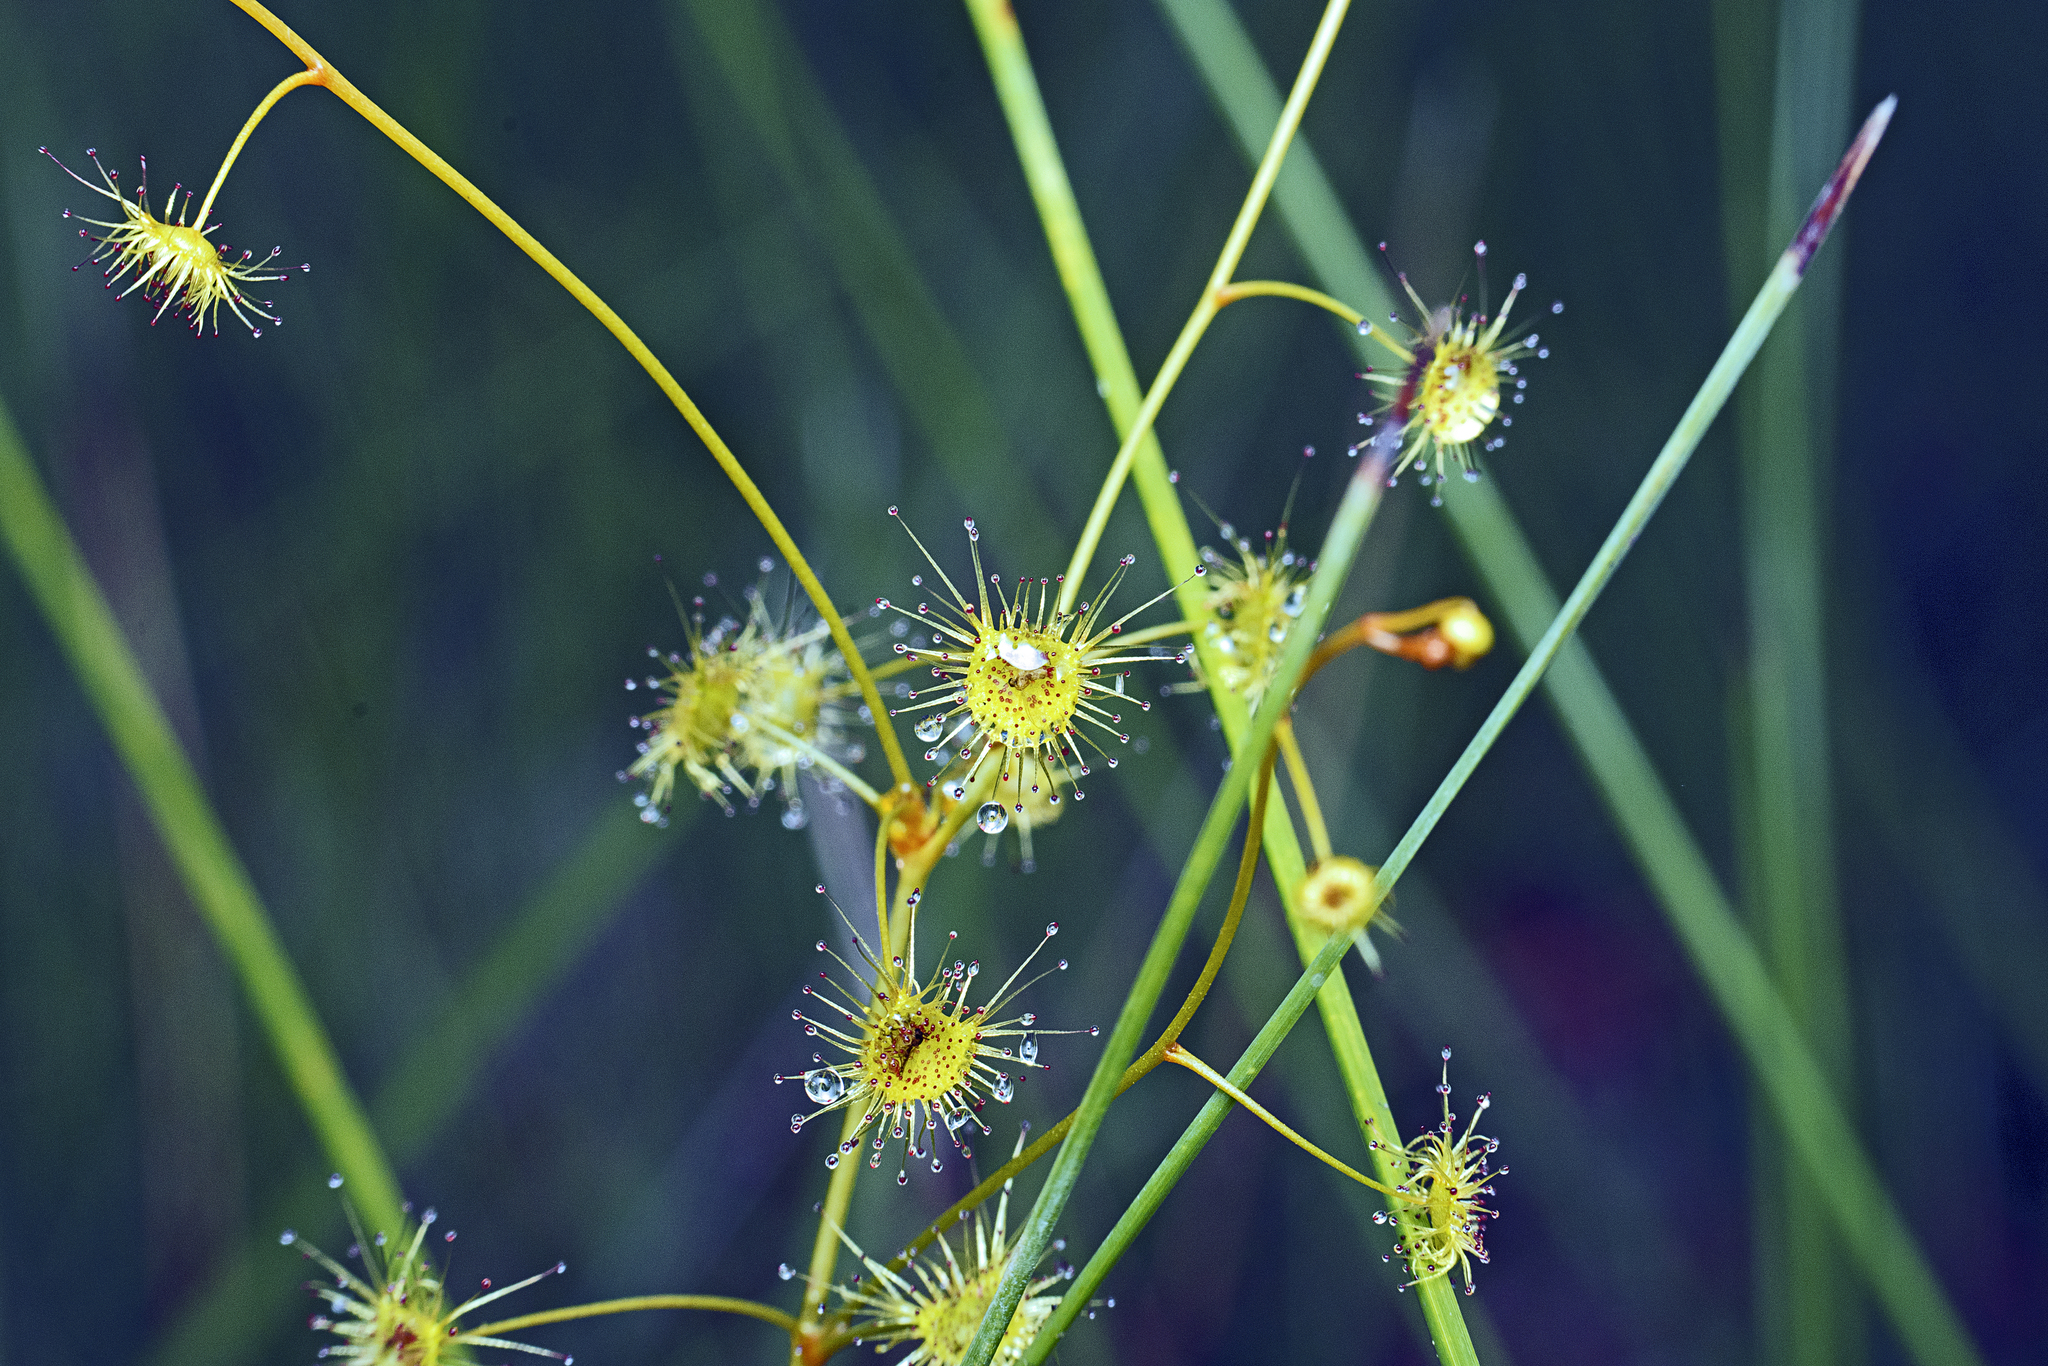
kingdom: Plantae
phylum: Tracheophyta
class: Magnoliopsida
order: Caryophyllales
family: Droseraceae
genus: Drosera
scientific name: Drosera peltata
